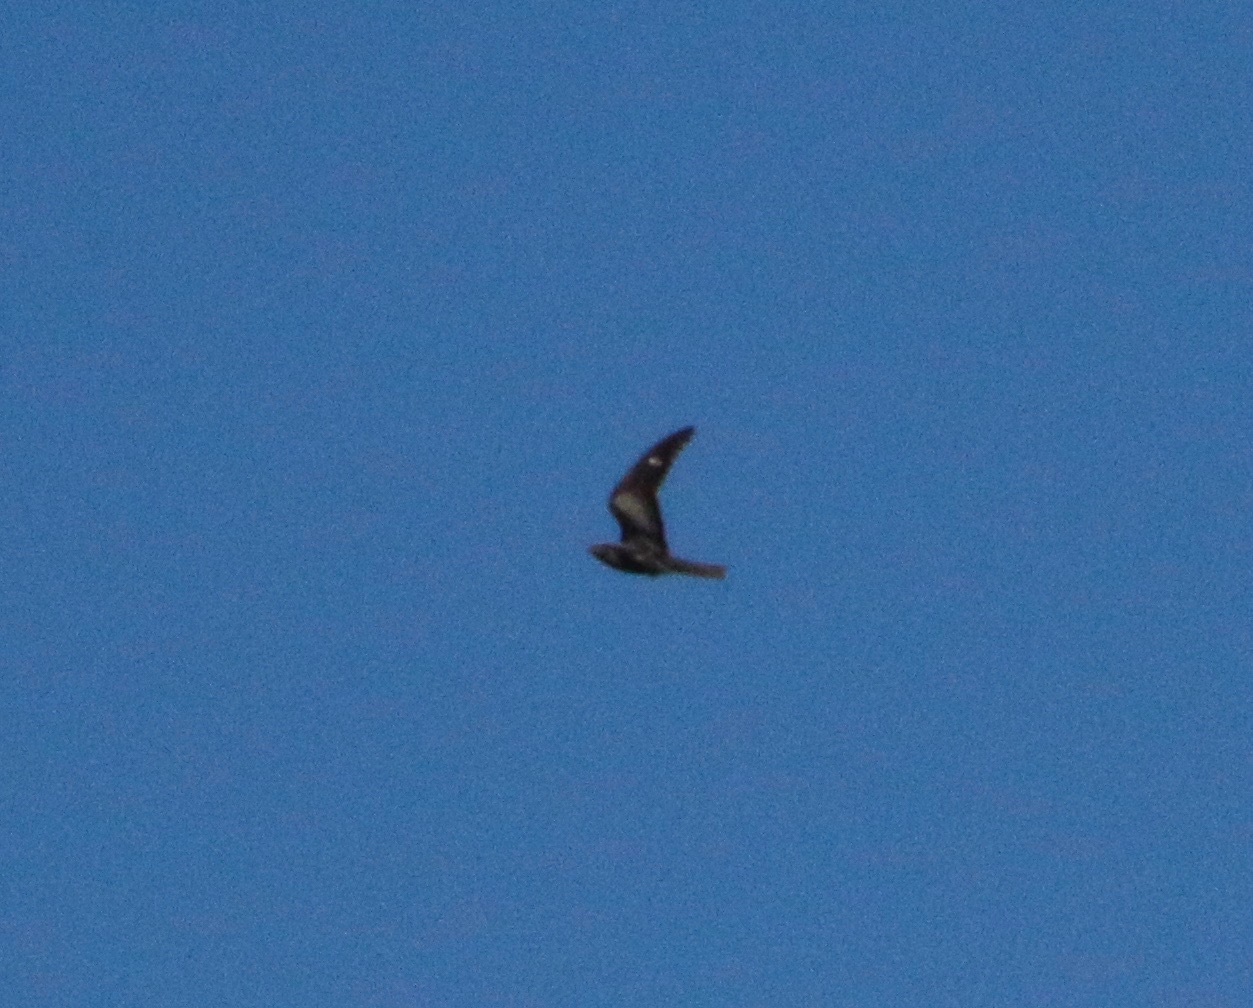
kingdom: Animalia
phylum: Chordata
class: Aves
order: Caprimulgiformes
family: Caprimulgidae
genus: Chordeiles
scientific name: Chordeiles minor
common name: Common nighthawk
